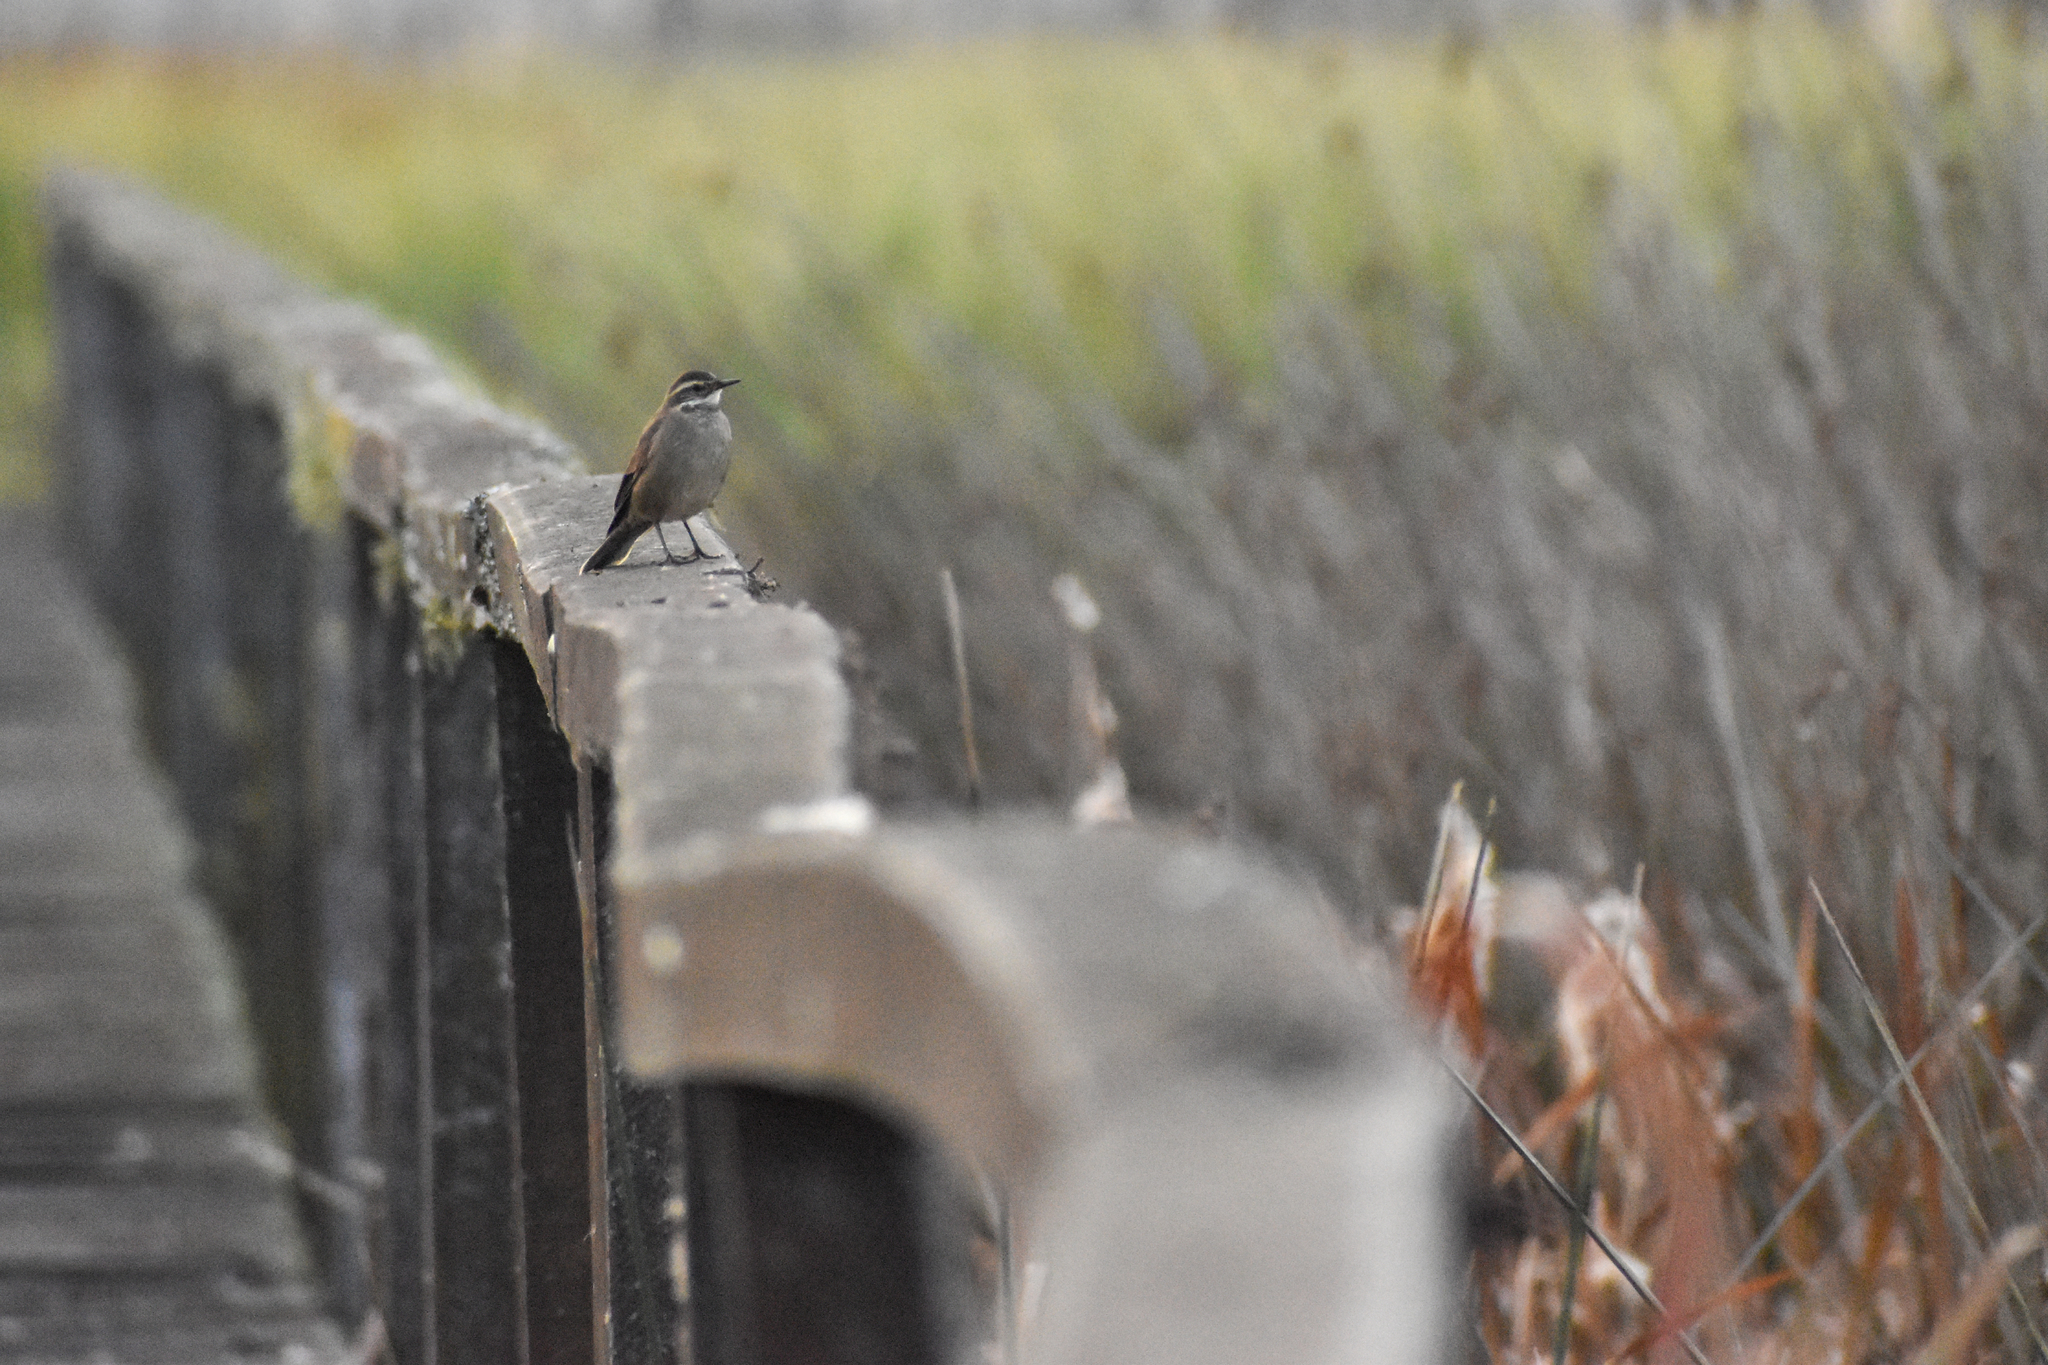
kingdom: Animalia
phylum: Chordata
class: Aves
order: Passeriformes
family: Furnariidae
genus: Cinclodes
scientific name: Cinclodes fuscus
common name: Buff-winged cinclodes
